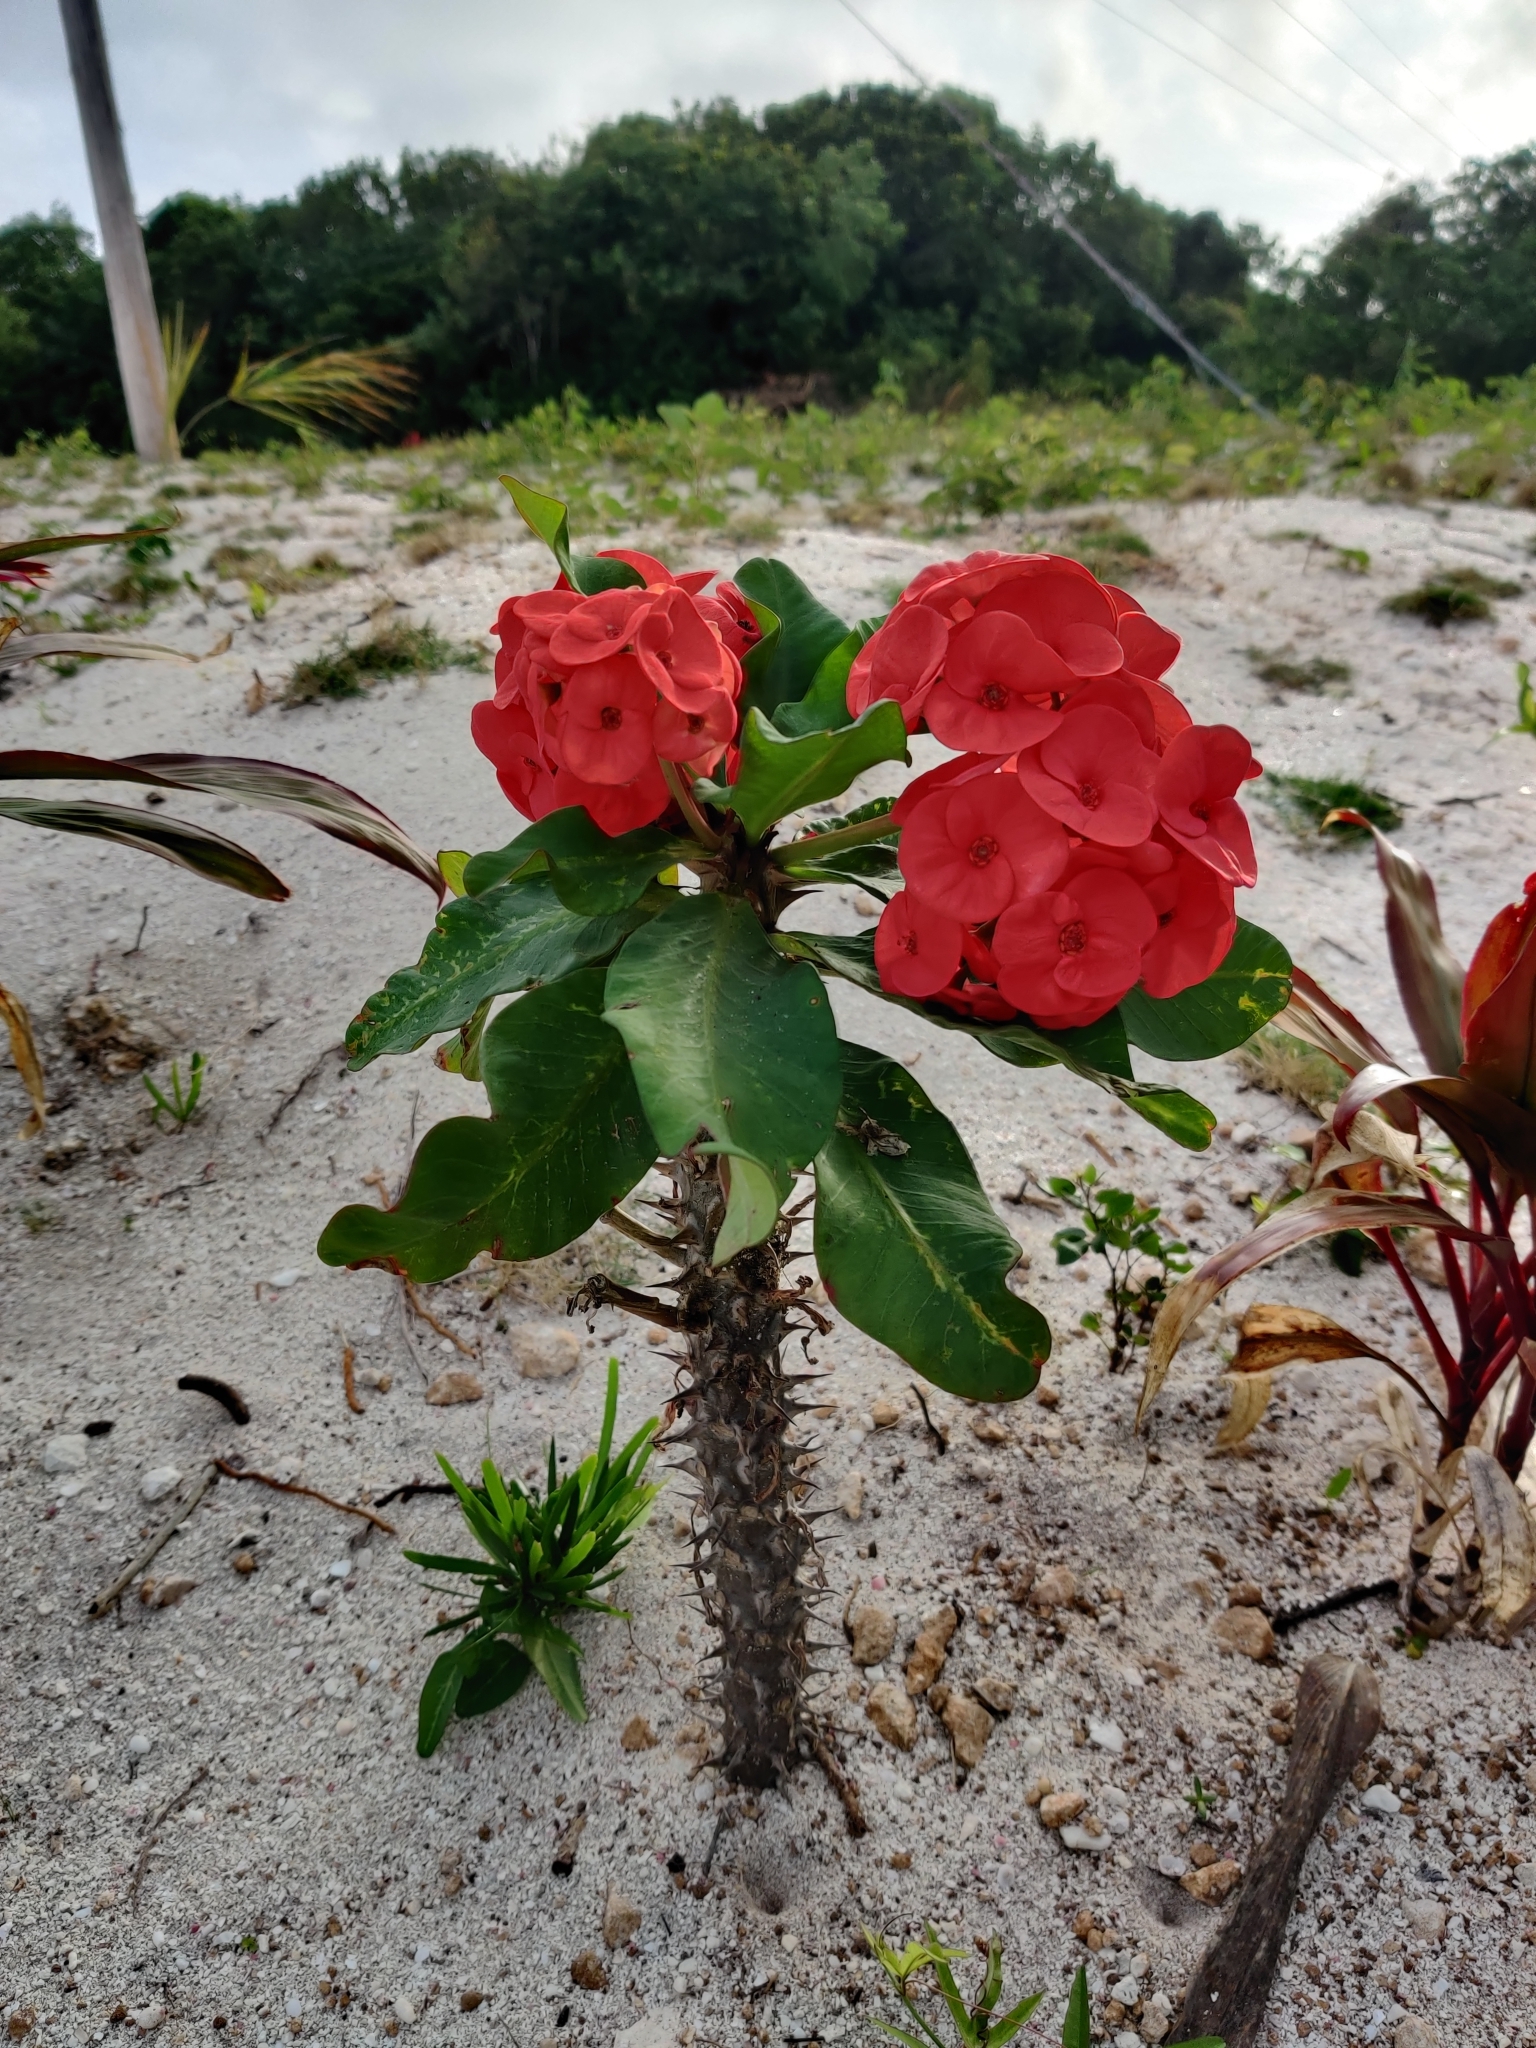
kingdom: Plantae
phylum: Tracheophyta
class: Magnoliopsida
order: Malpighiales
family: Euphorbiaceae
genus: Euphorbia
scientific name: Euphorbia milii
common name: Christplant
